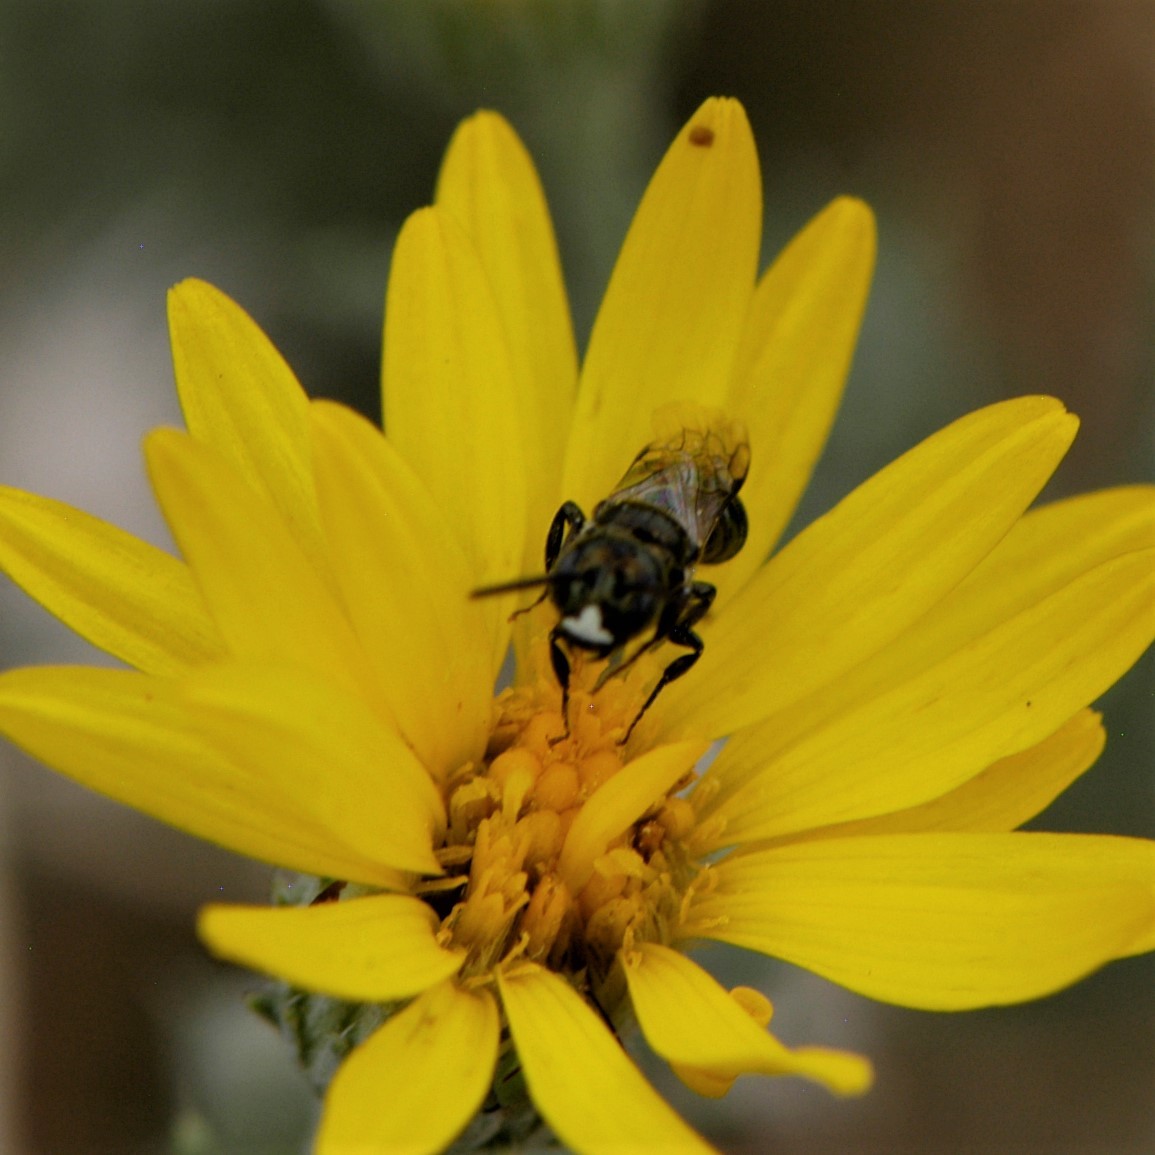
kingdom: Animalia
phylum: Arthropoda
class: Insecta
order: Hymenoptera
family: Apidae
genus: Zadontomerus
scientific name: Zadontomerus
